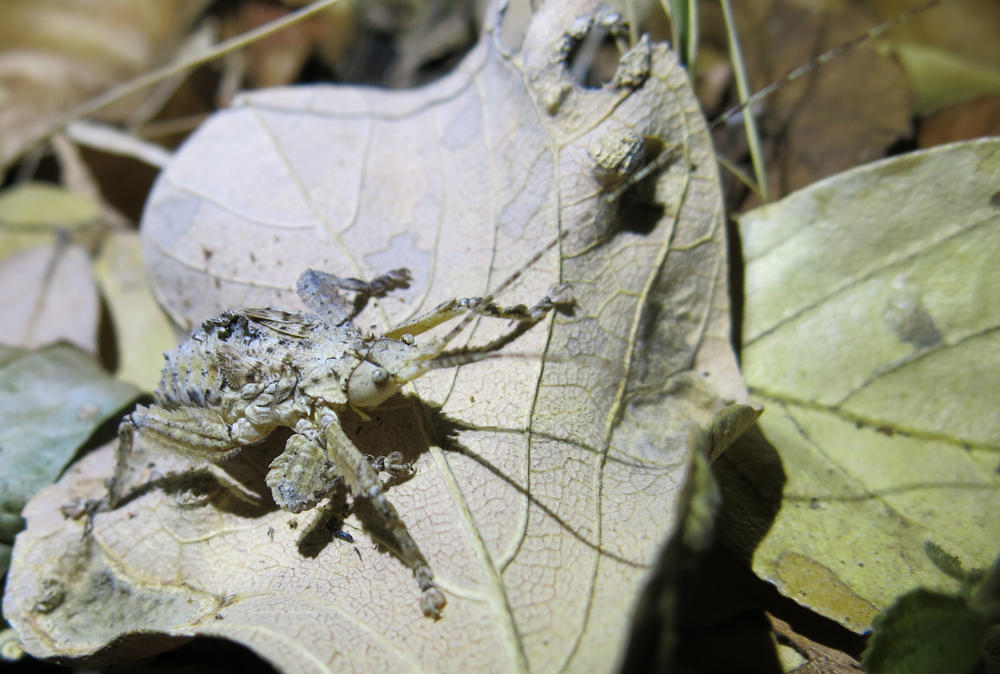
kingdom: Animalia
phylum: Arthropoda
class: Insecta
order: Orthoptera
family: Tettigoniidae
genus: Cymatomera
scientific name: Cymatomera denticollis
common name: Common bark katydid
